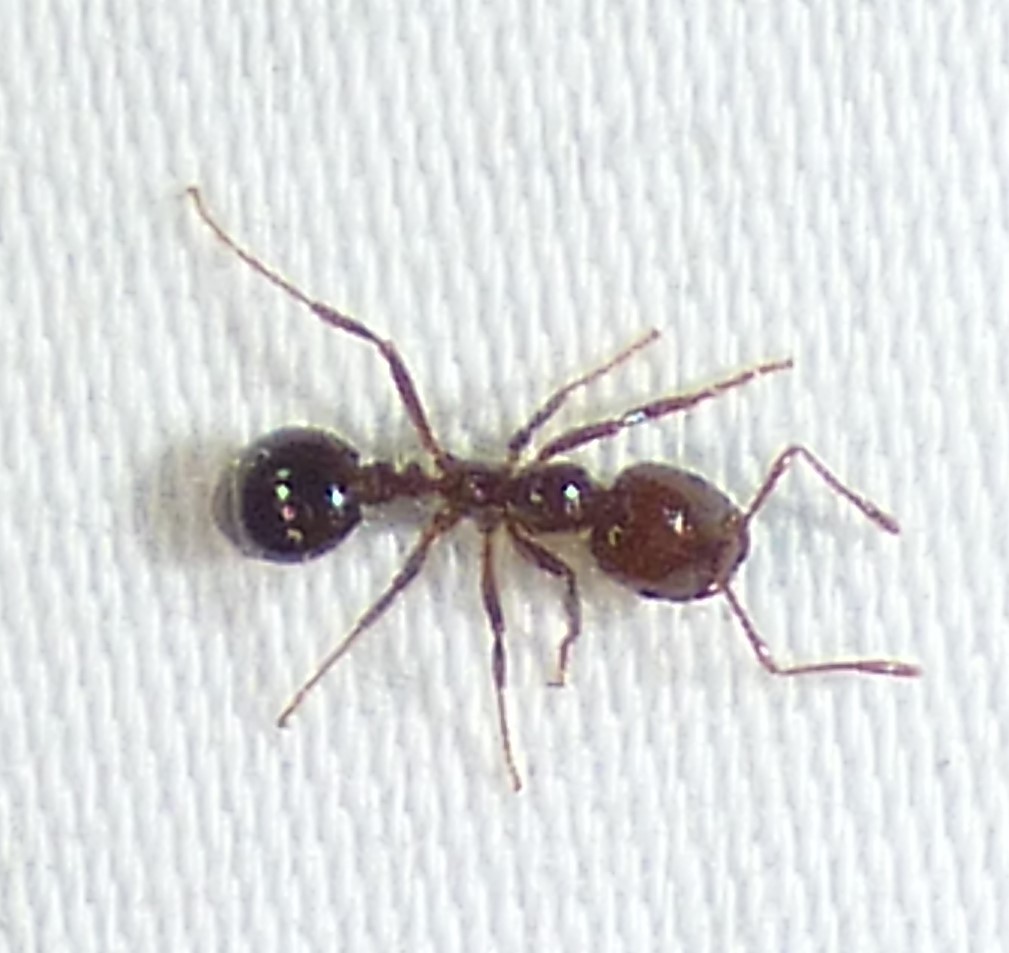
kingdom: Animalia
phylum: Arthropoda
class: Insecta
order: Hymenoptera
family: Formicidae
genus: Solenopsis
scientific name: Solenopsis invicta
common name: Red imported fire ant
